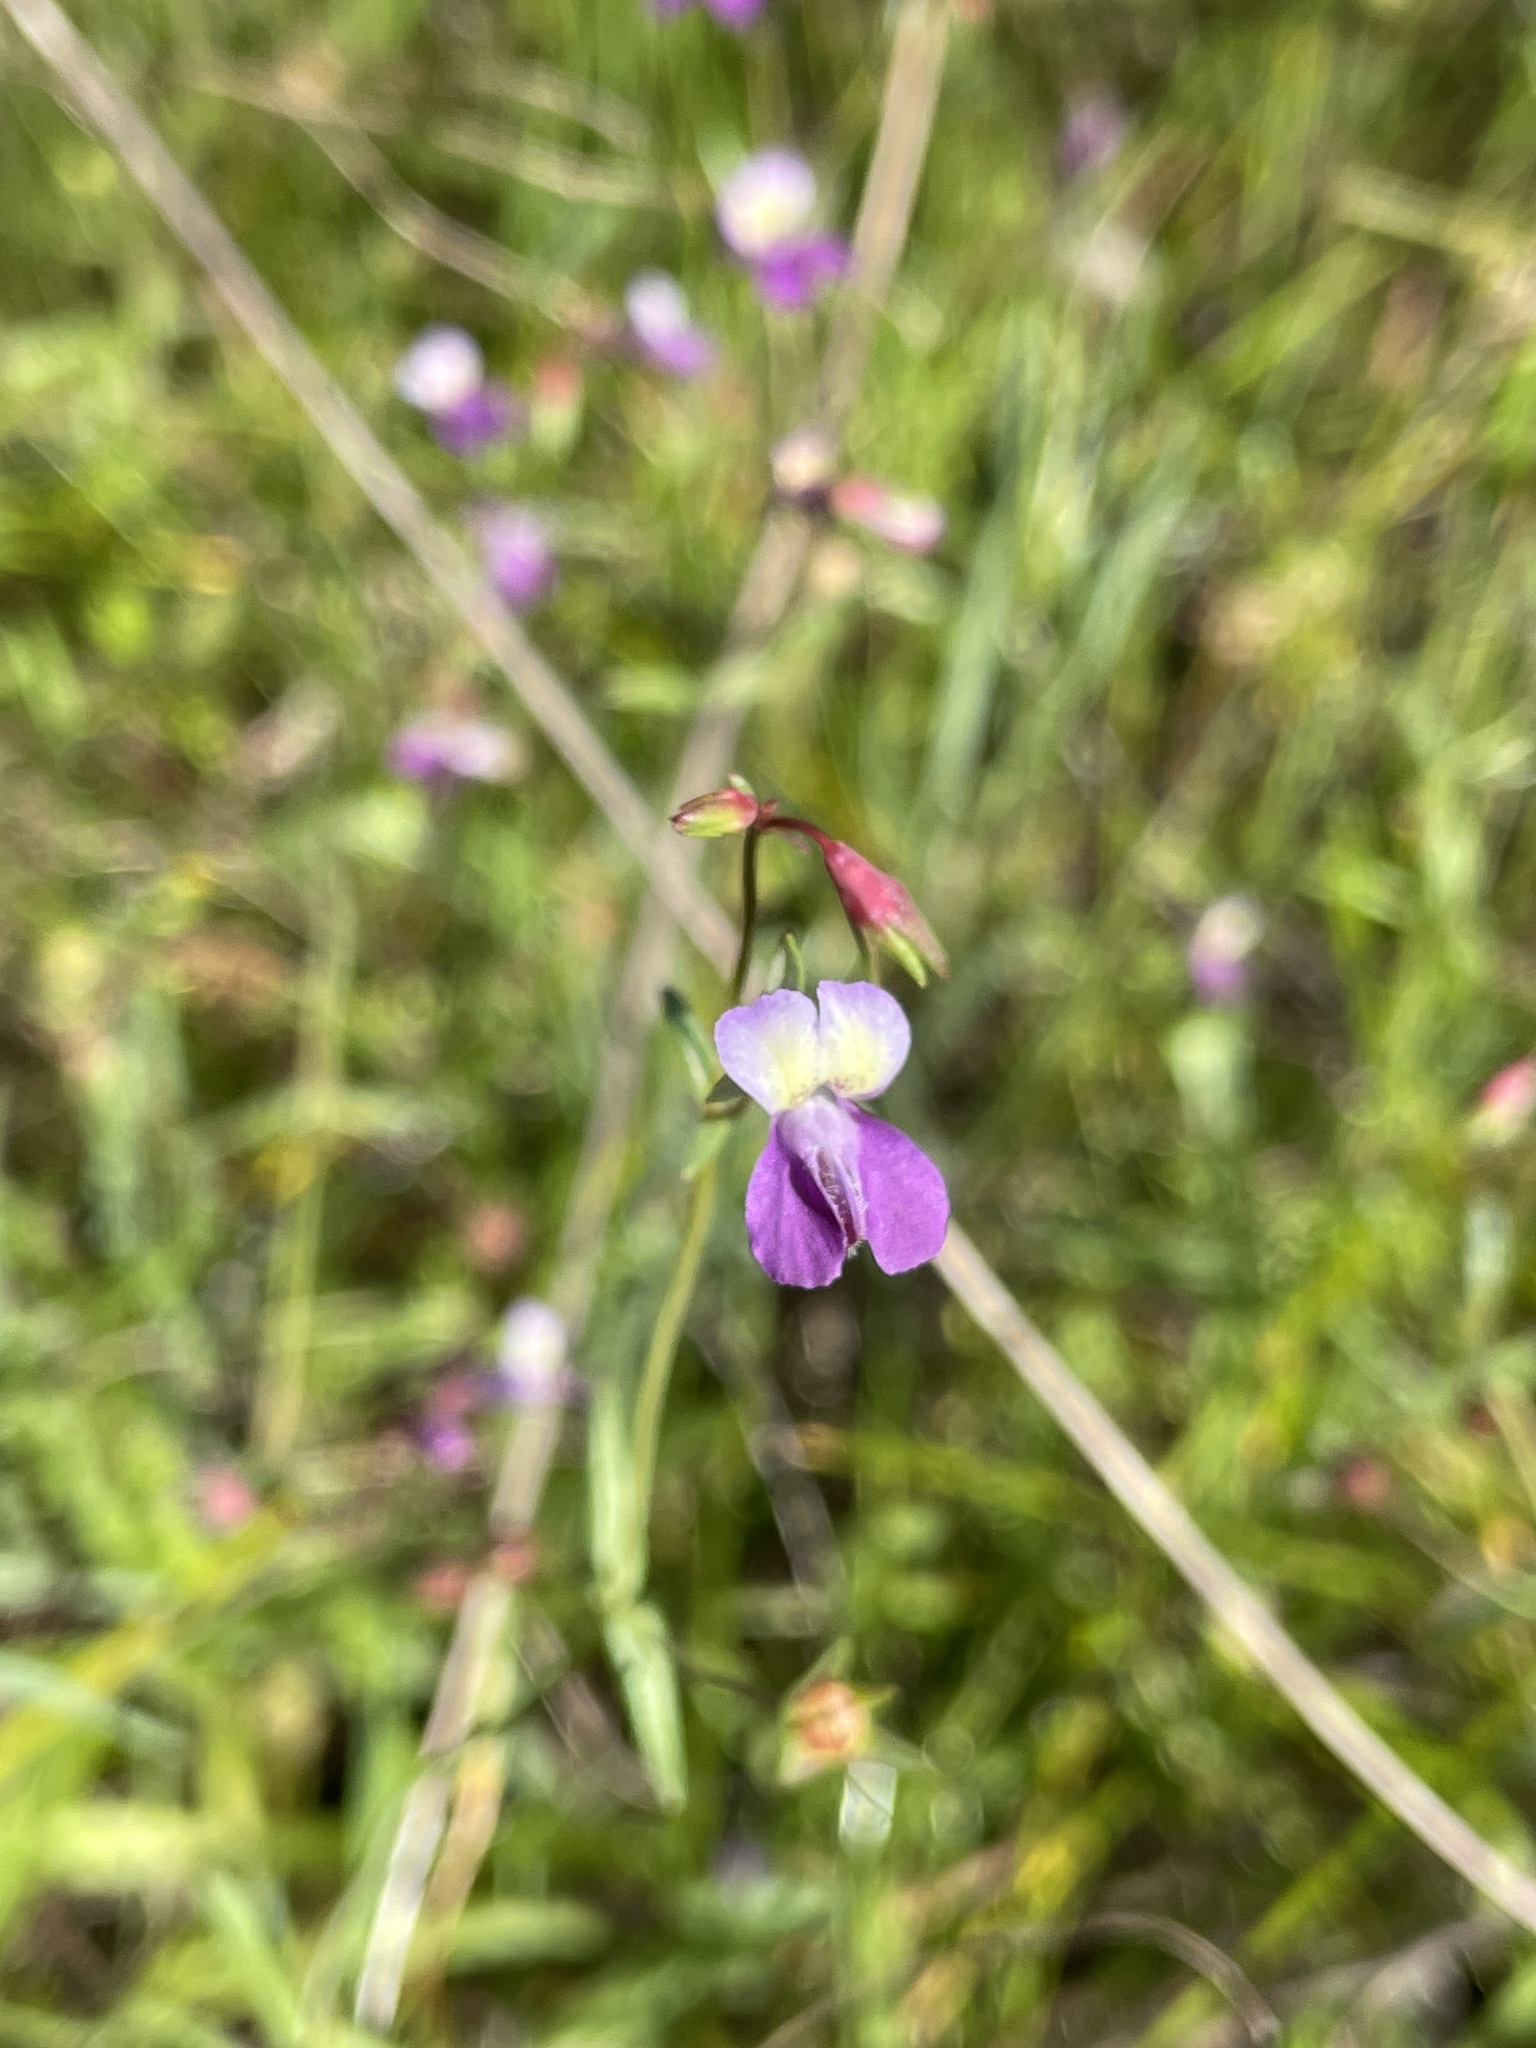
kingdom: Plantae
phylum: Tracheophyta
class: Magnoliopsida
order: Lamiales
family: Plantaginaceae
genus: Collinsia
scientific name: Collinsia sparsiflora
